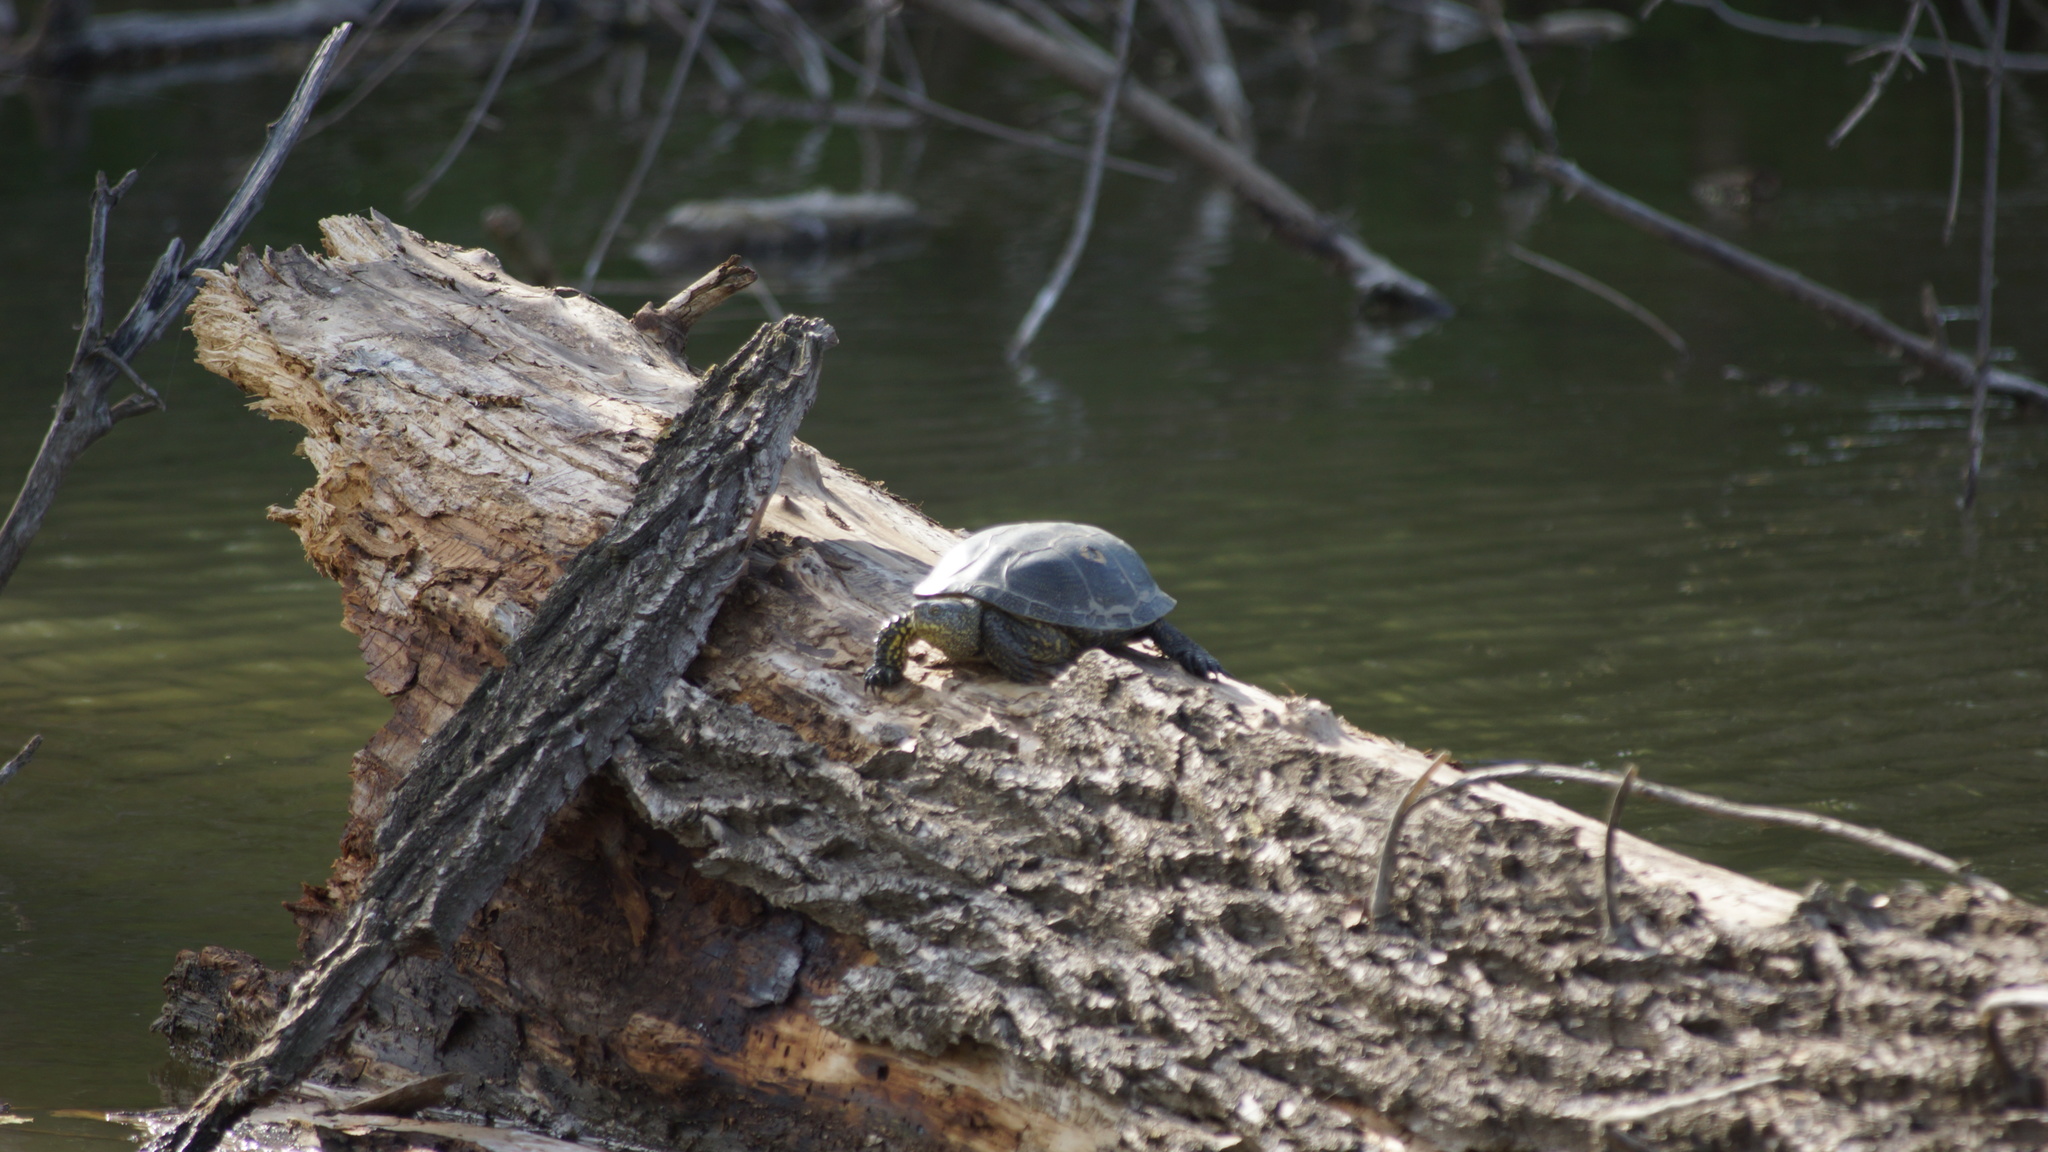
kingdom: Animalia
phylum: Chordata
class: Testudines
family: Emydidae
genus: Emys
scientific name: Emys orbicularis
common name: European pond turtle
